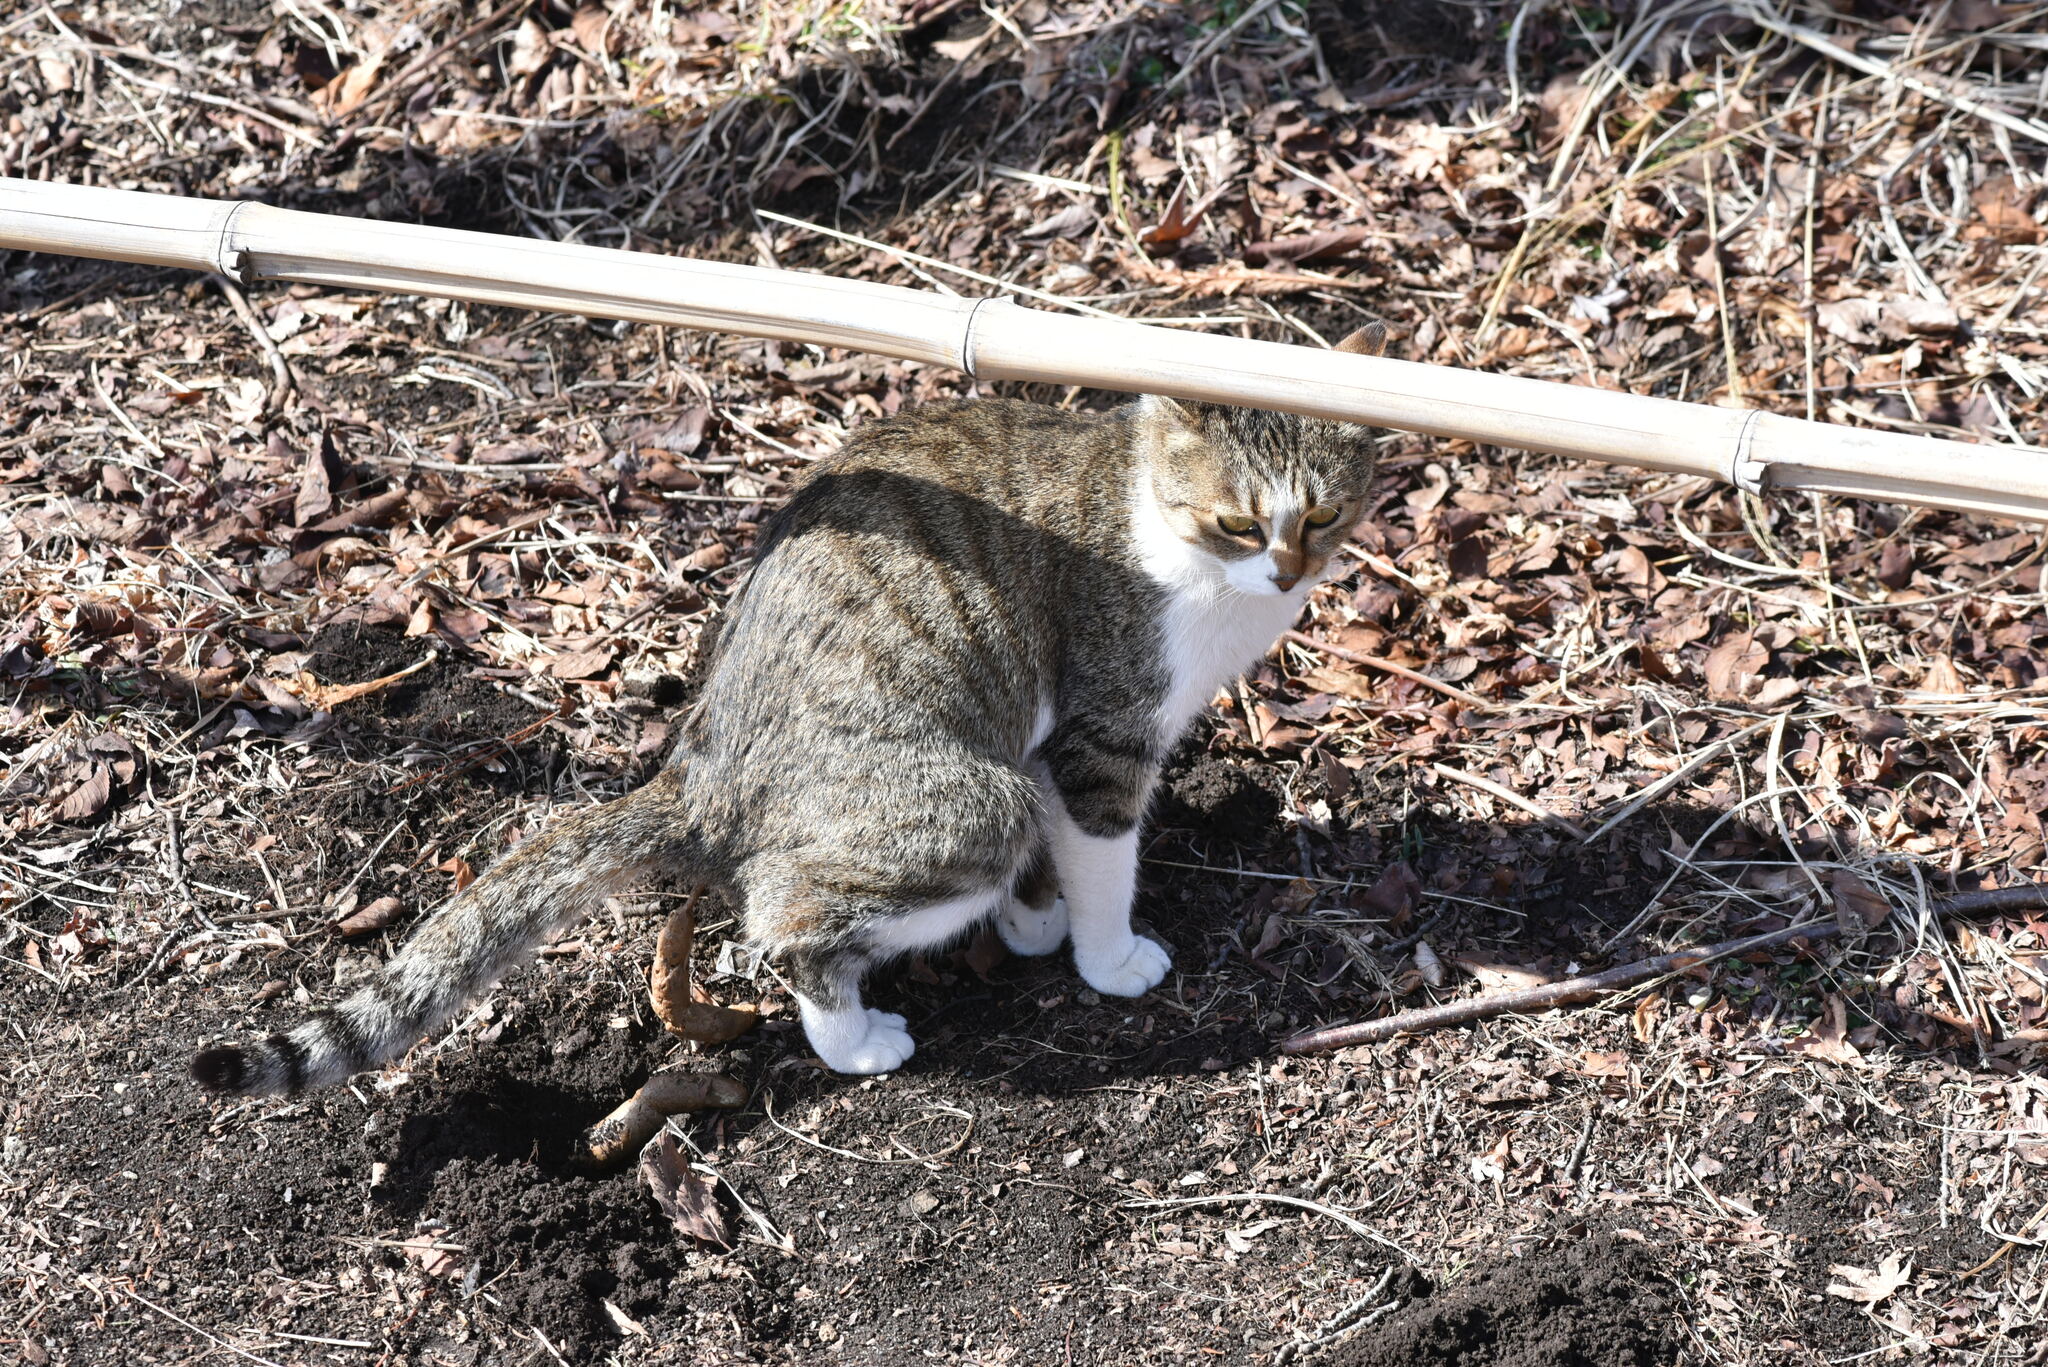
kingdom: Animalia
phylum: Chordata
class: Mammalia
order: Carnivora
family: Felidae
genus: Felis
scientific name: Felis catus
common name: Domestic cat
